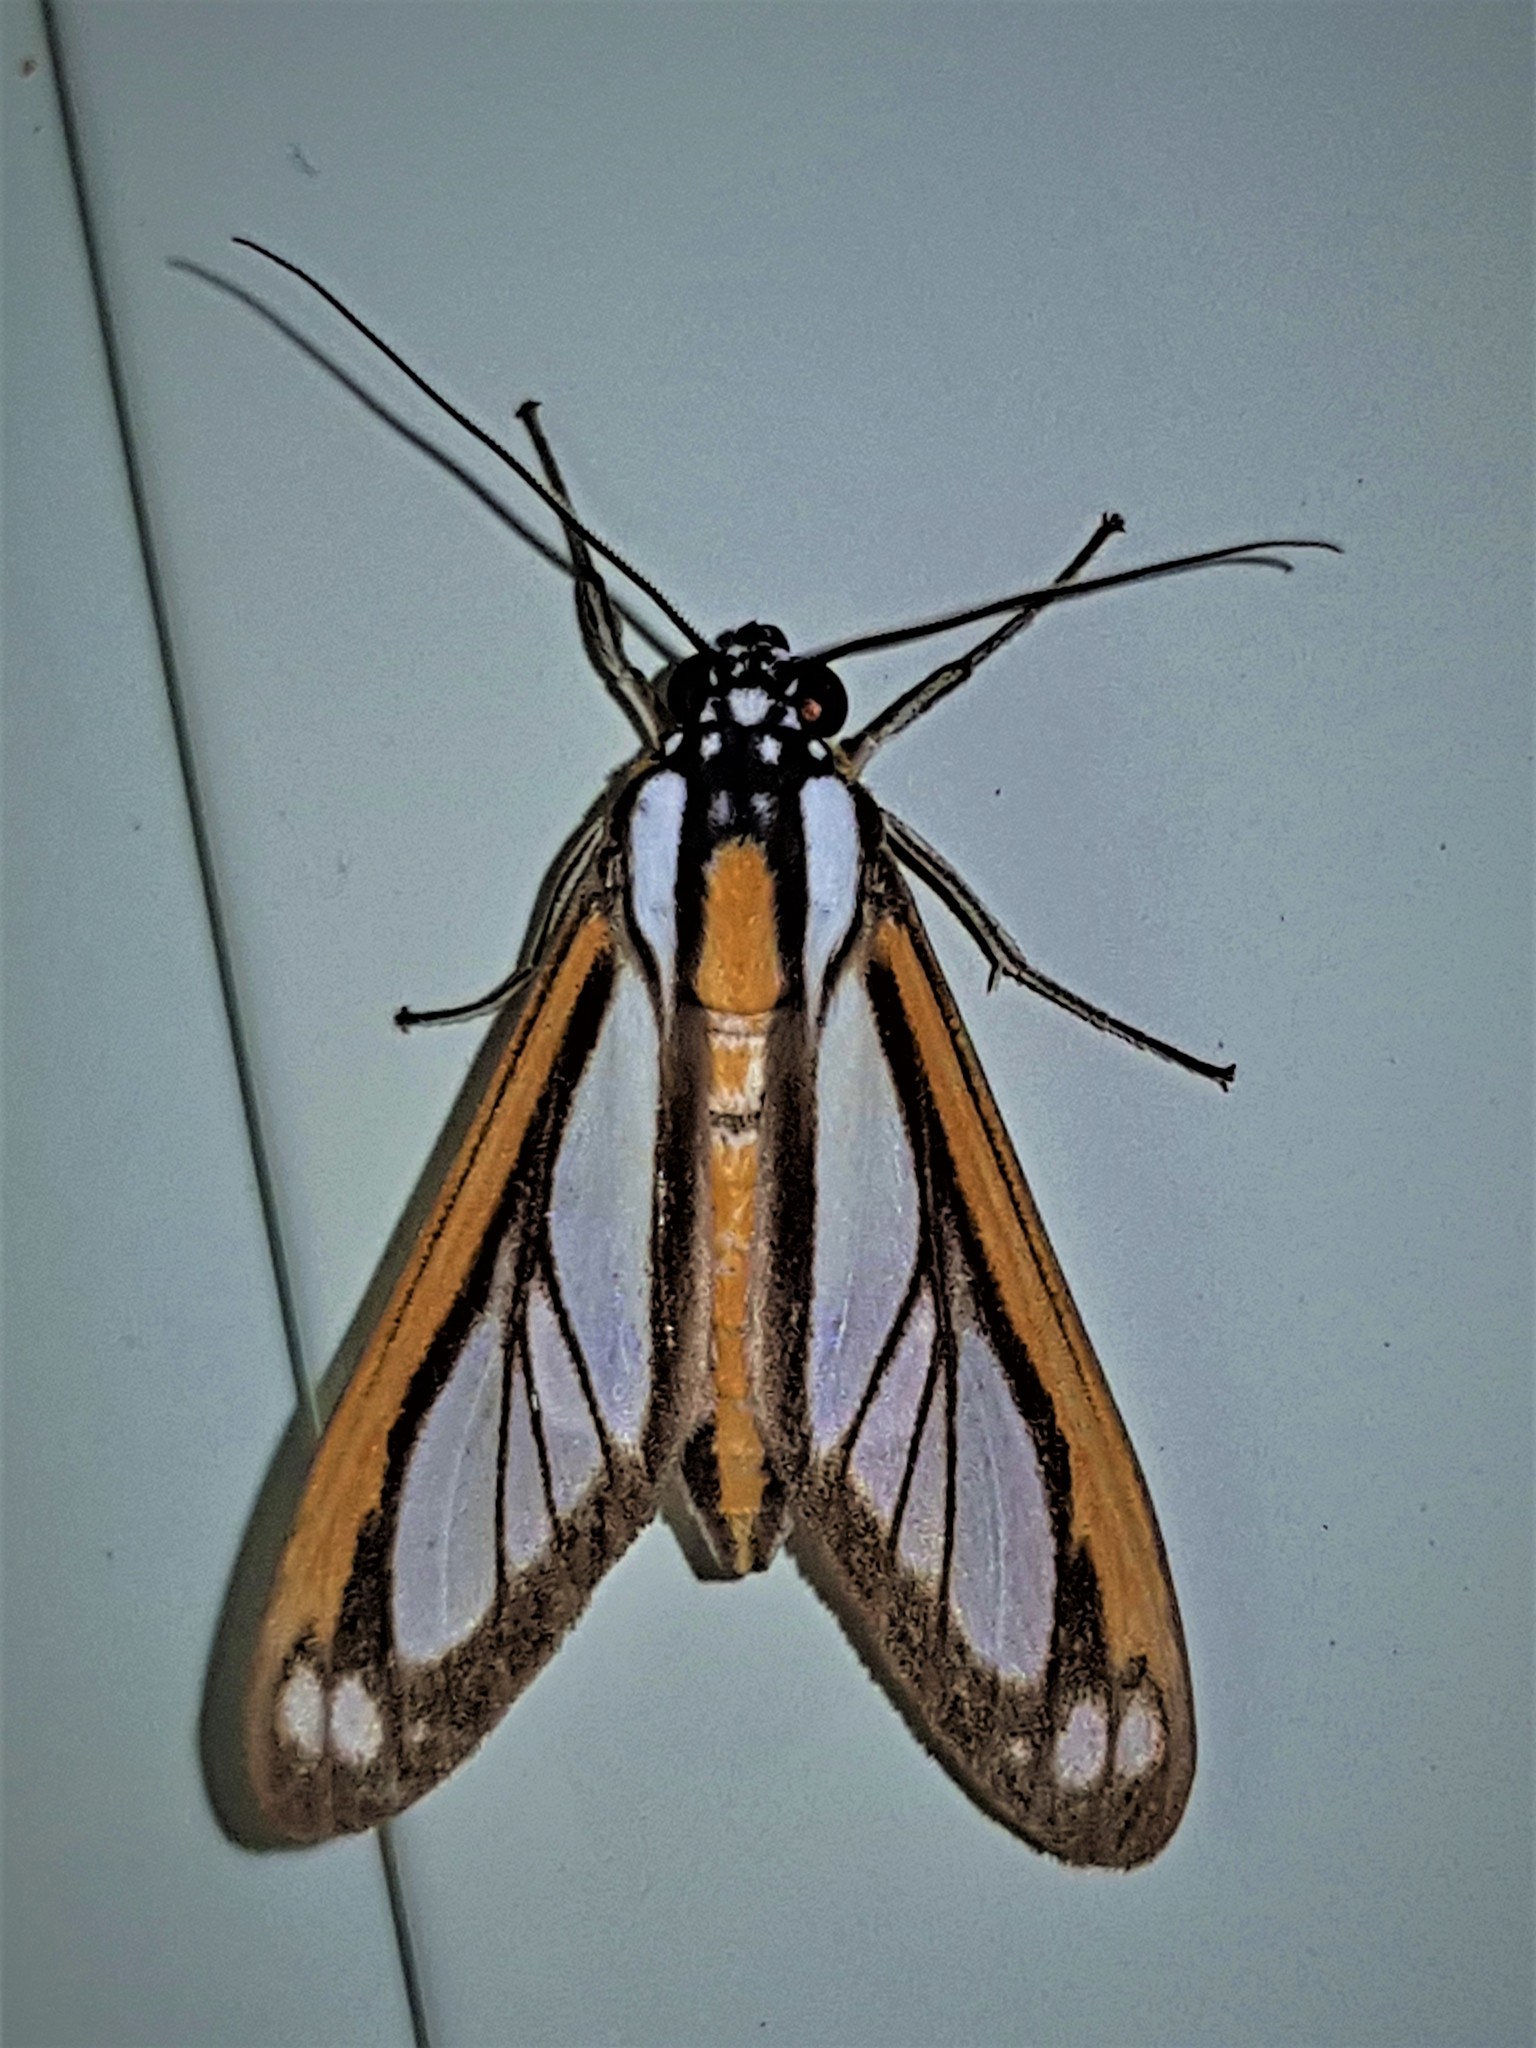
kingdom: Animalia
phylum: Arthropoda
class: Insecta
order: Lepidoptera
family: Erebidae
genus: Robinsonia
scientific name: Robinsonia rockstonia
